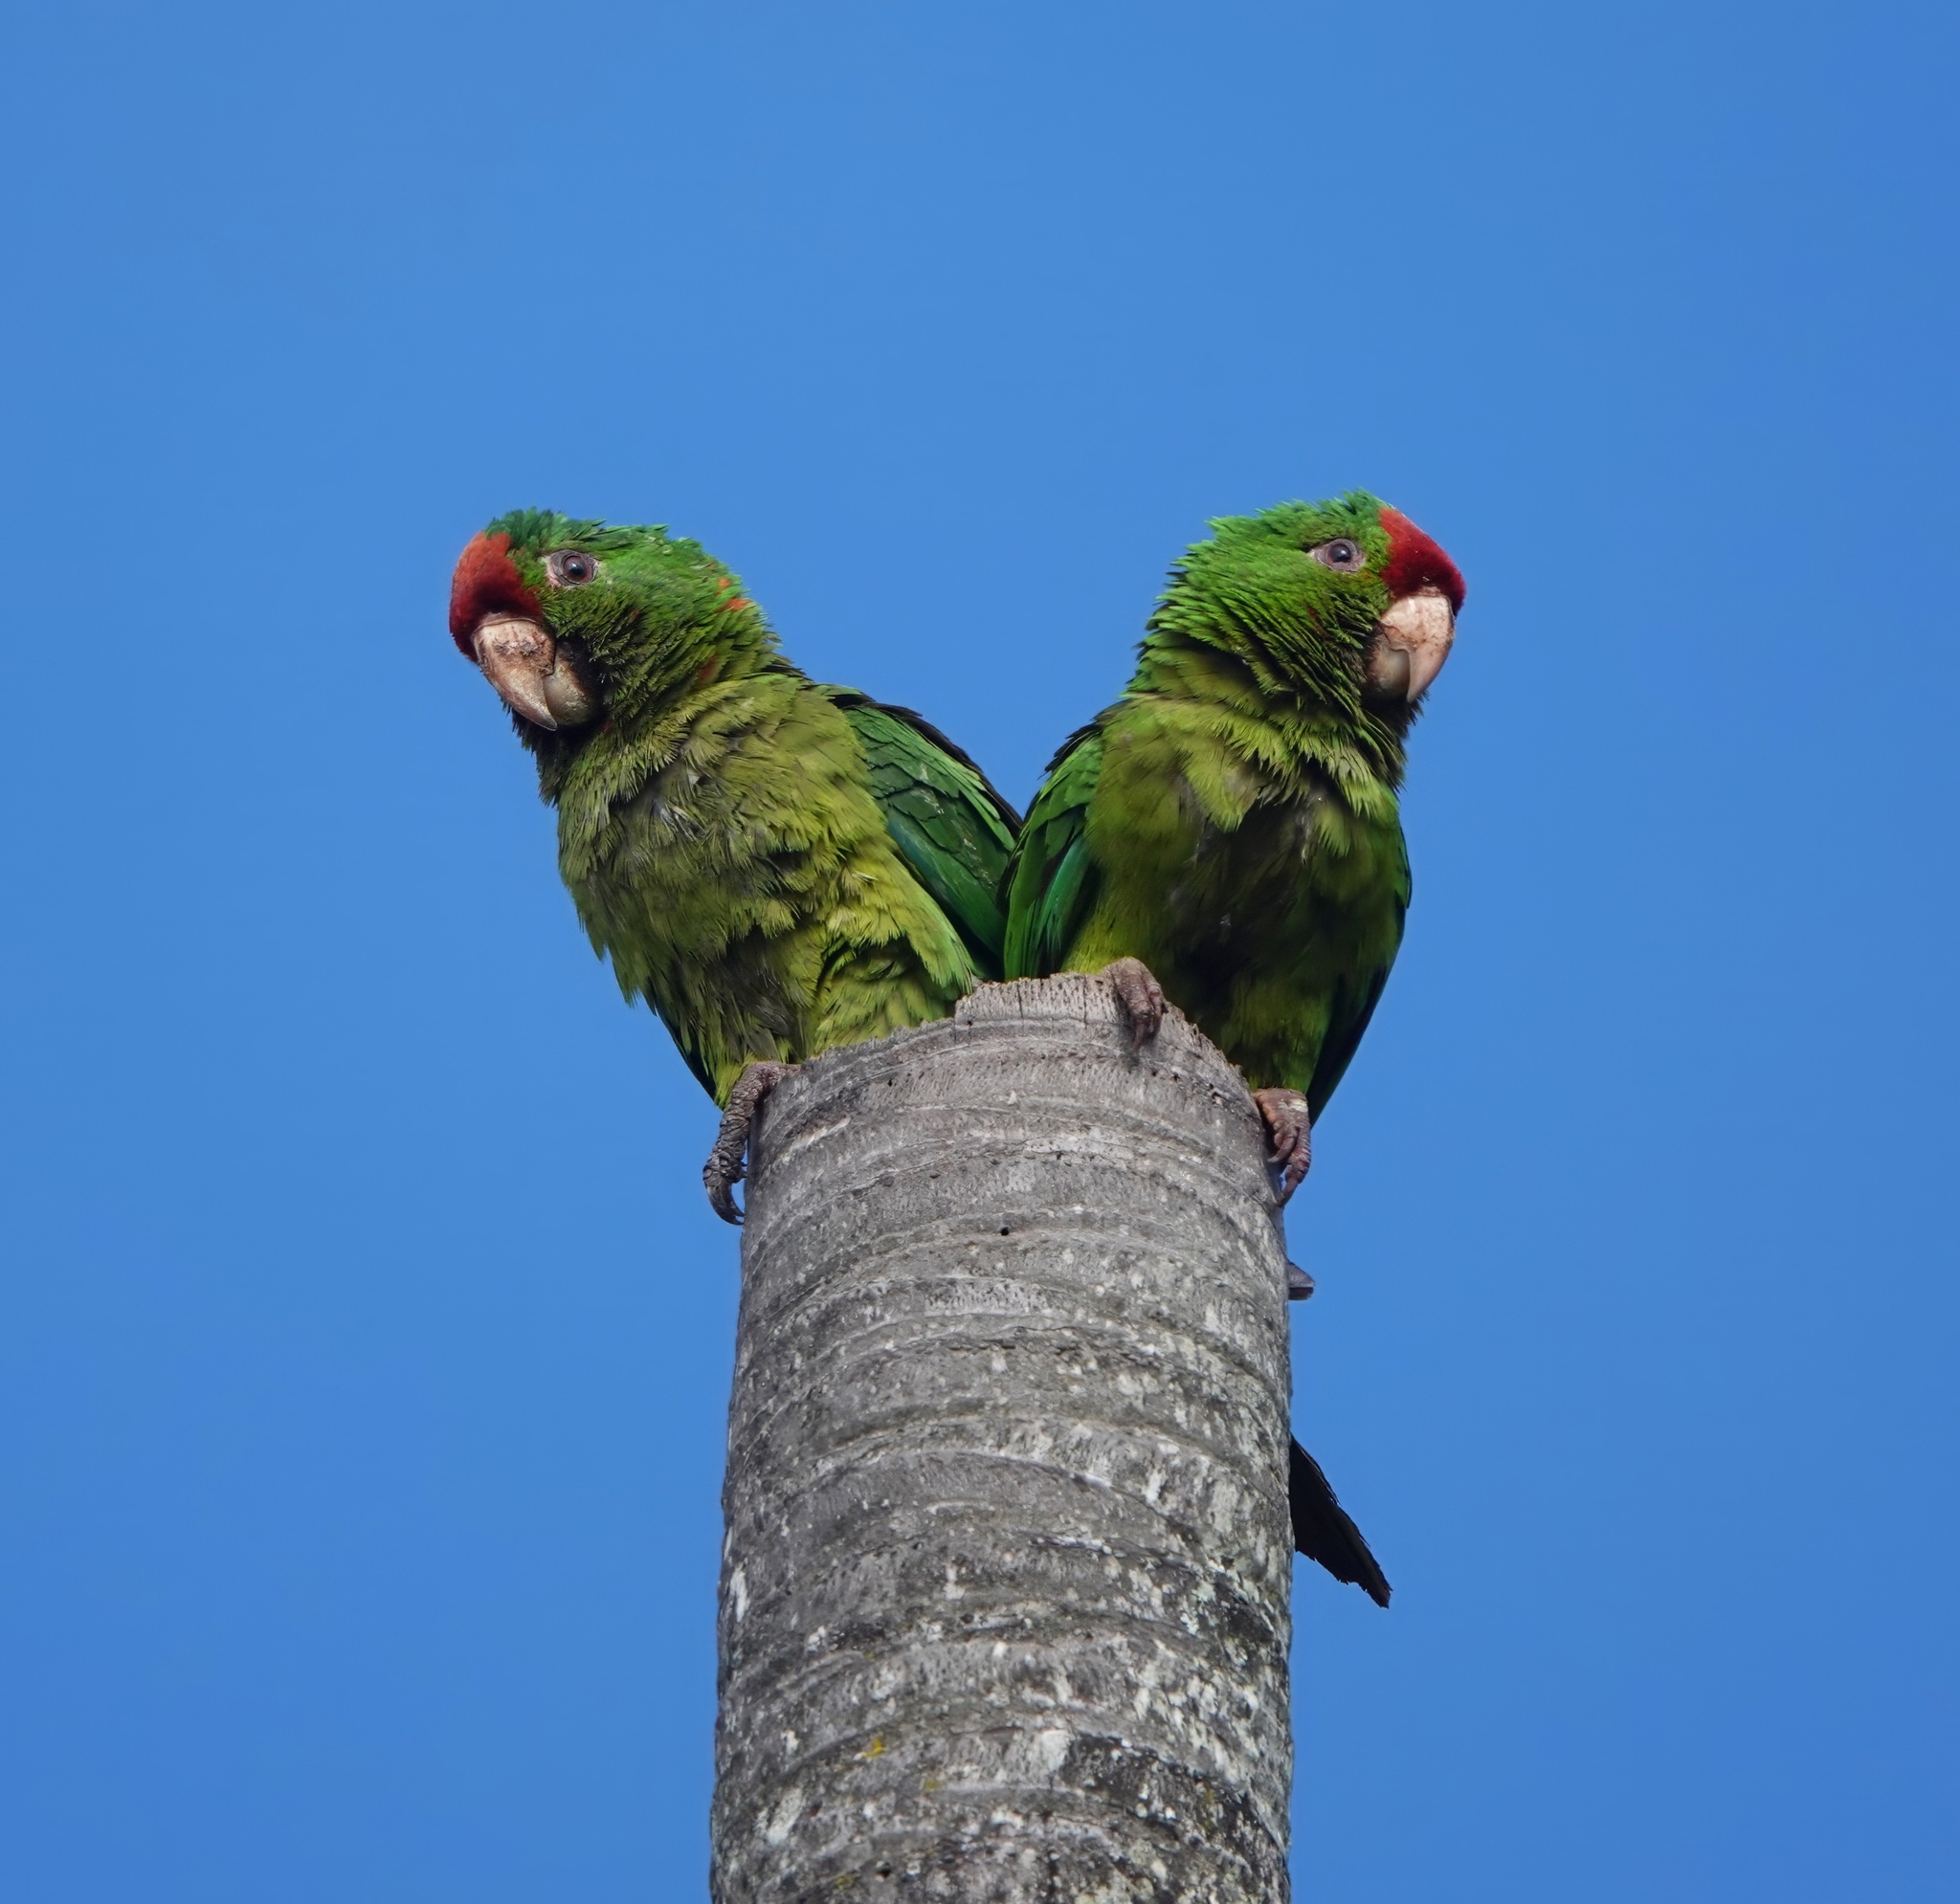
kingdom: Animalia
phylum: Chordata
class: Aves
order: Psittaciformes
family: Psittacidae
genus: Aratinga
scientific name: Aratinga wagleri
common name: Scarlet-fronted parakeet
